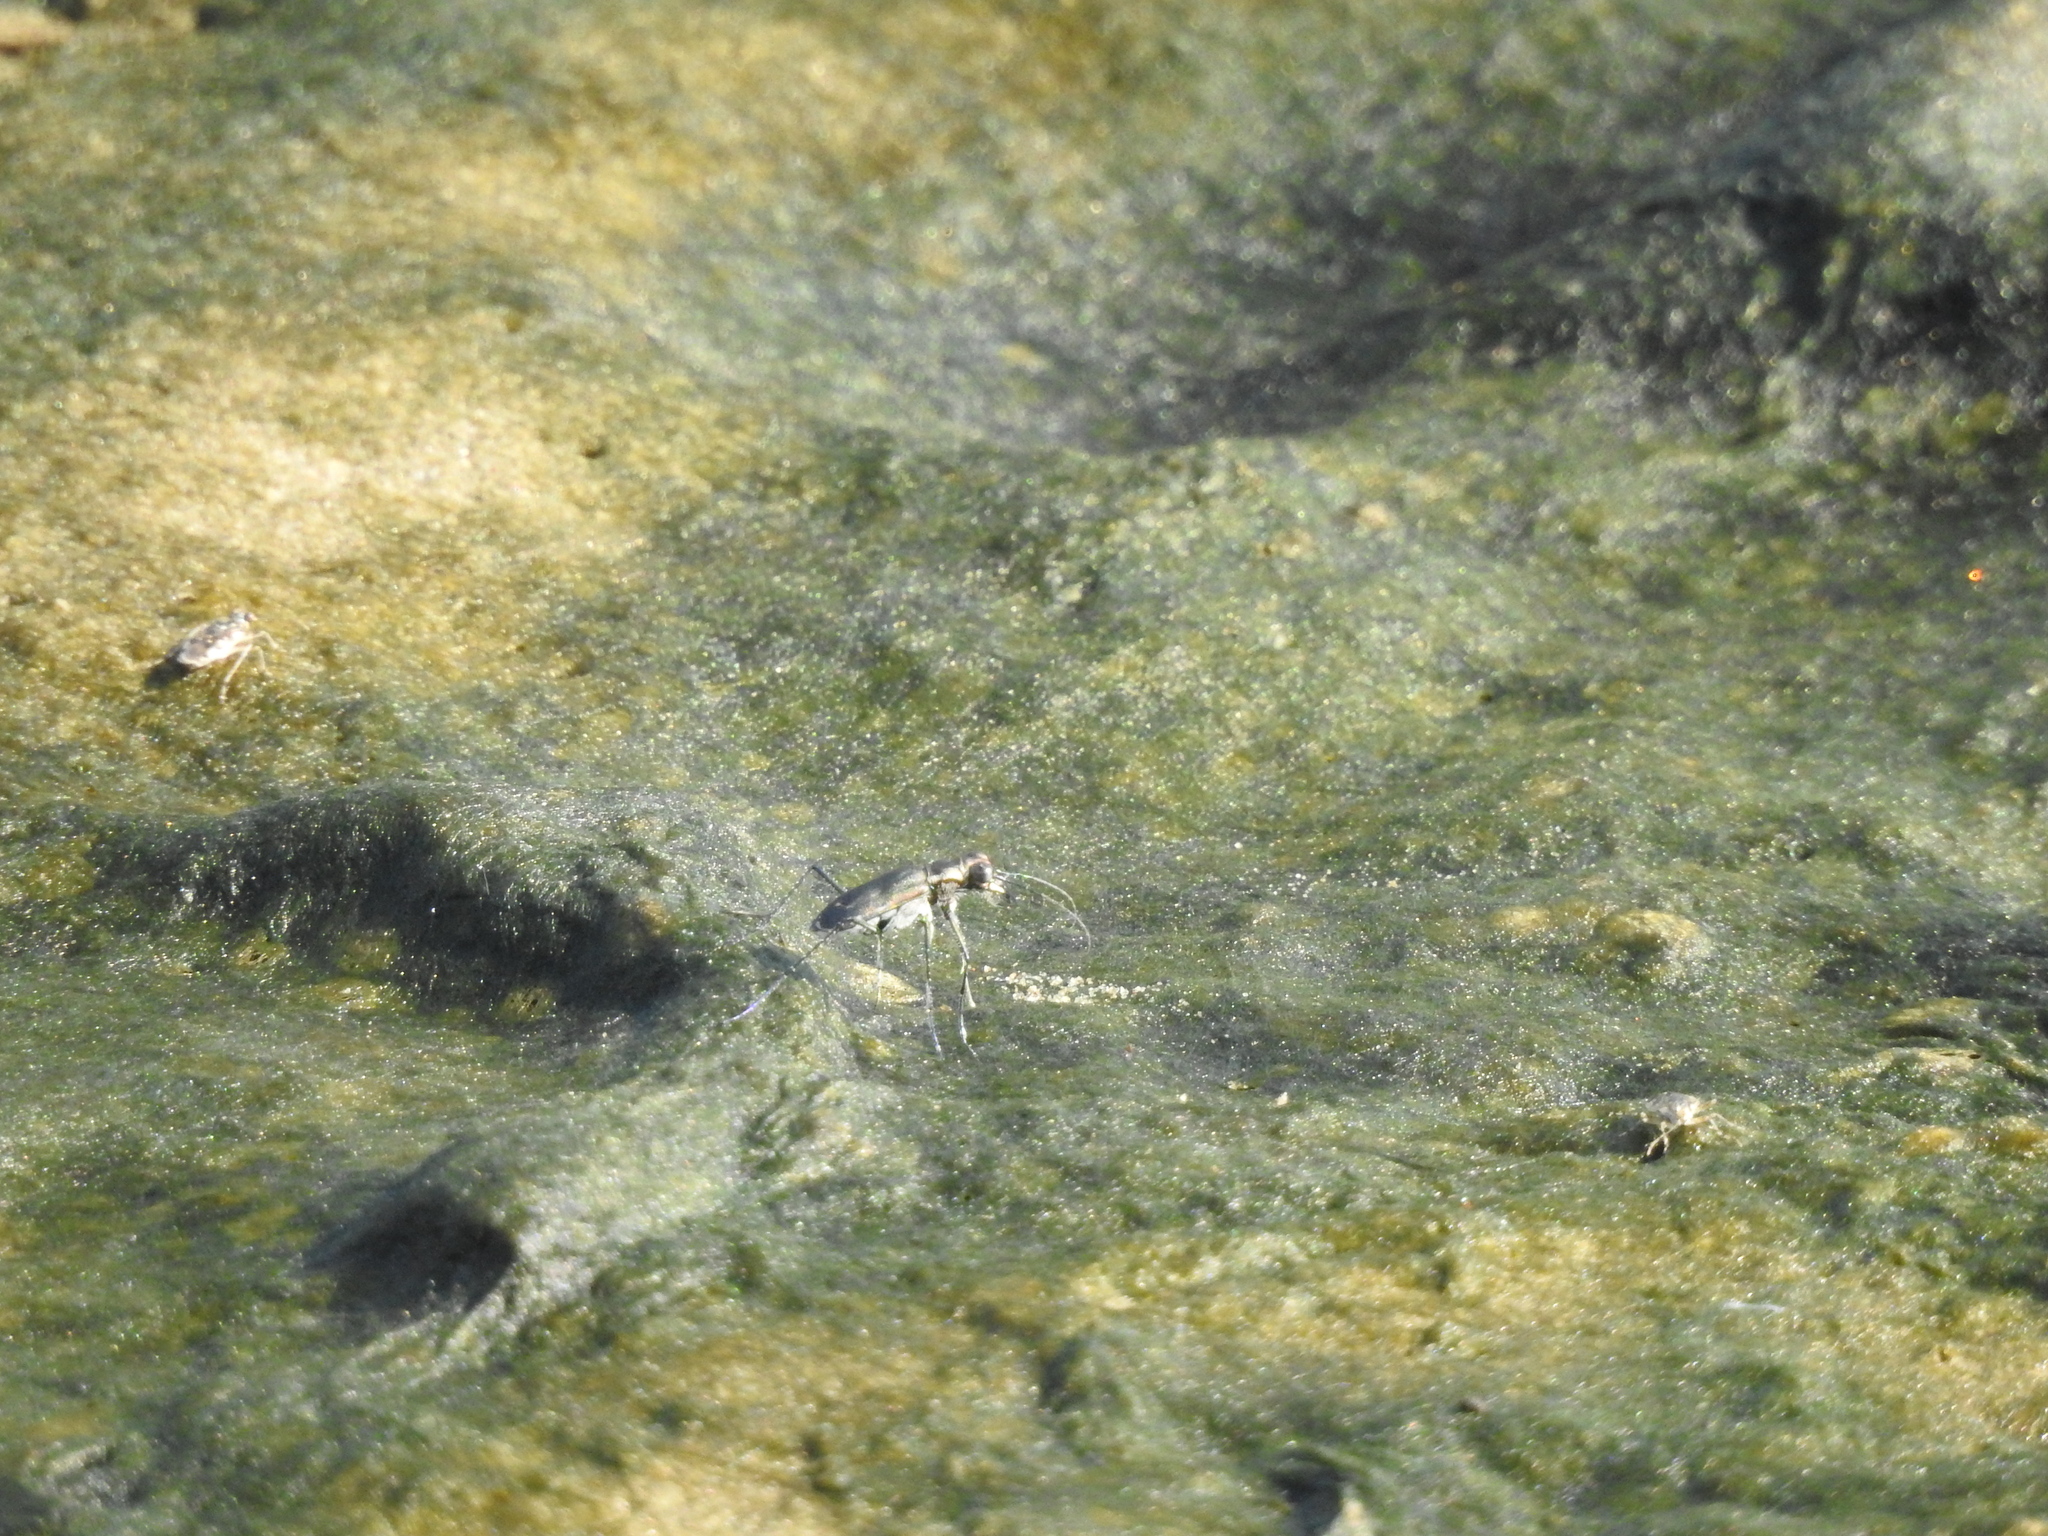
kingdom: Animalia
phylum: Arthropoda
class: Insecta
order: Coleoptera
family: Carabidae
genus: Cicindela
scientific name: Cicindela trifasciata
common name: Mudflat tiger beetle
